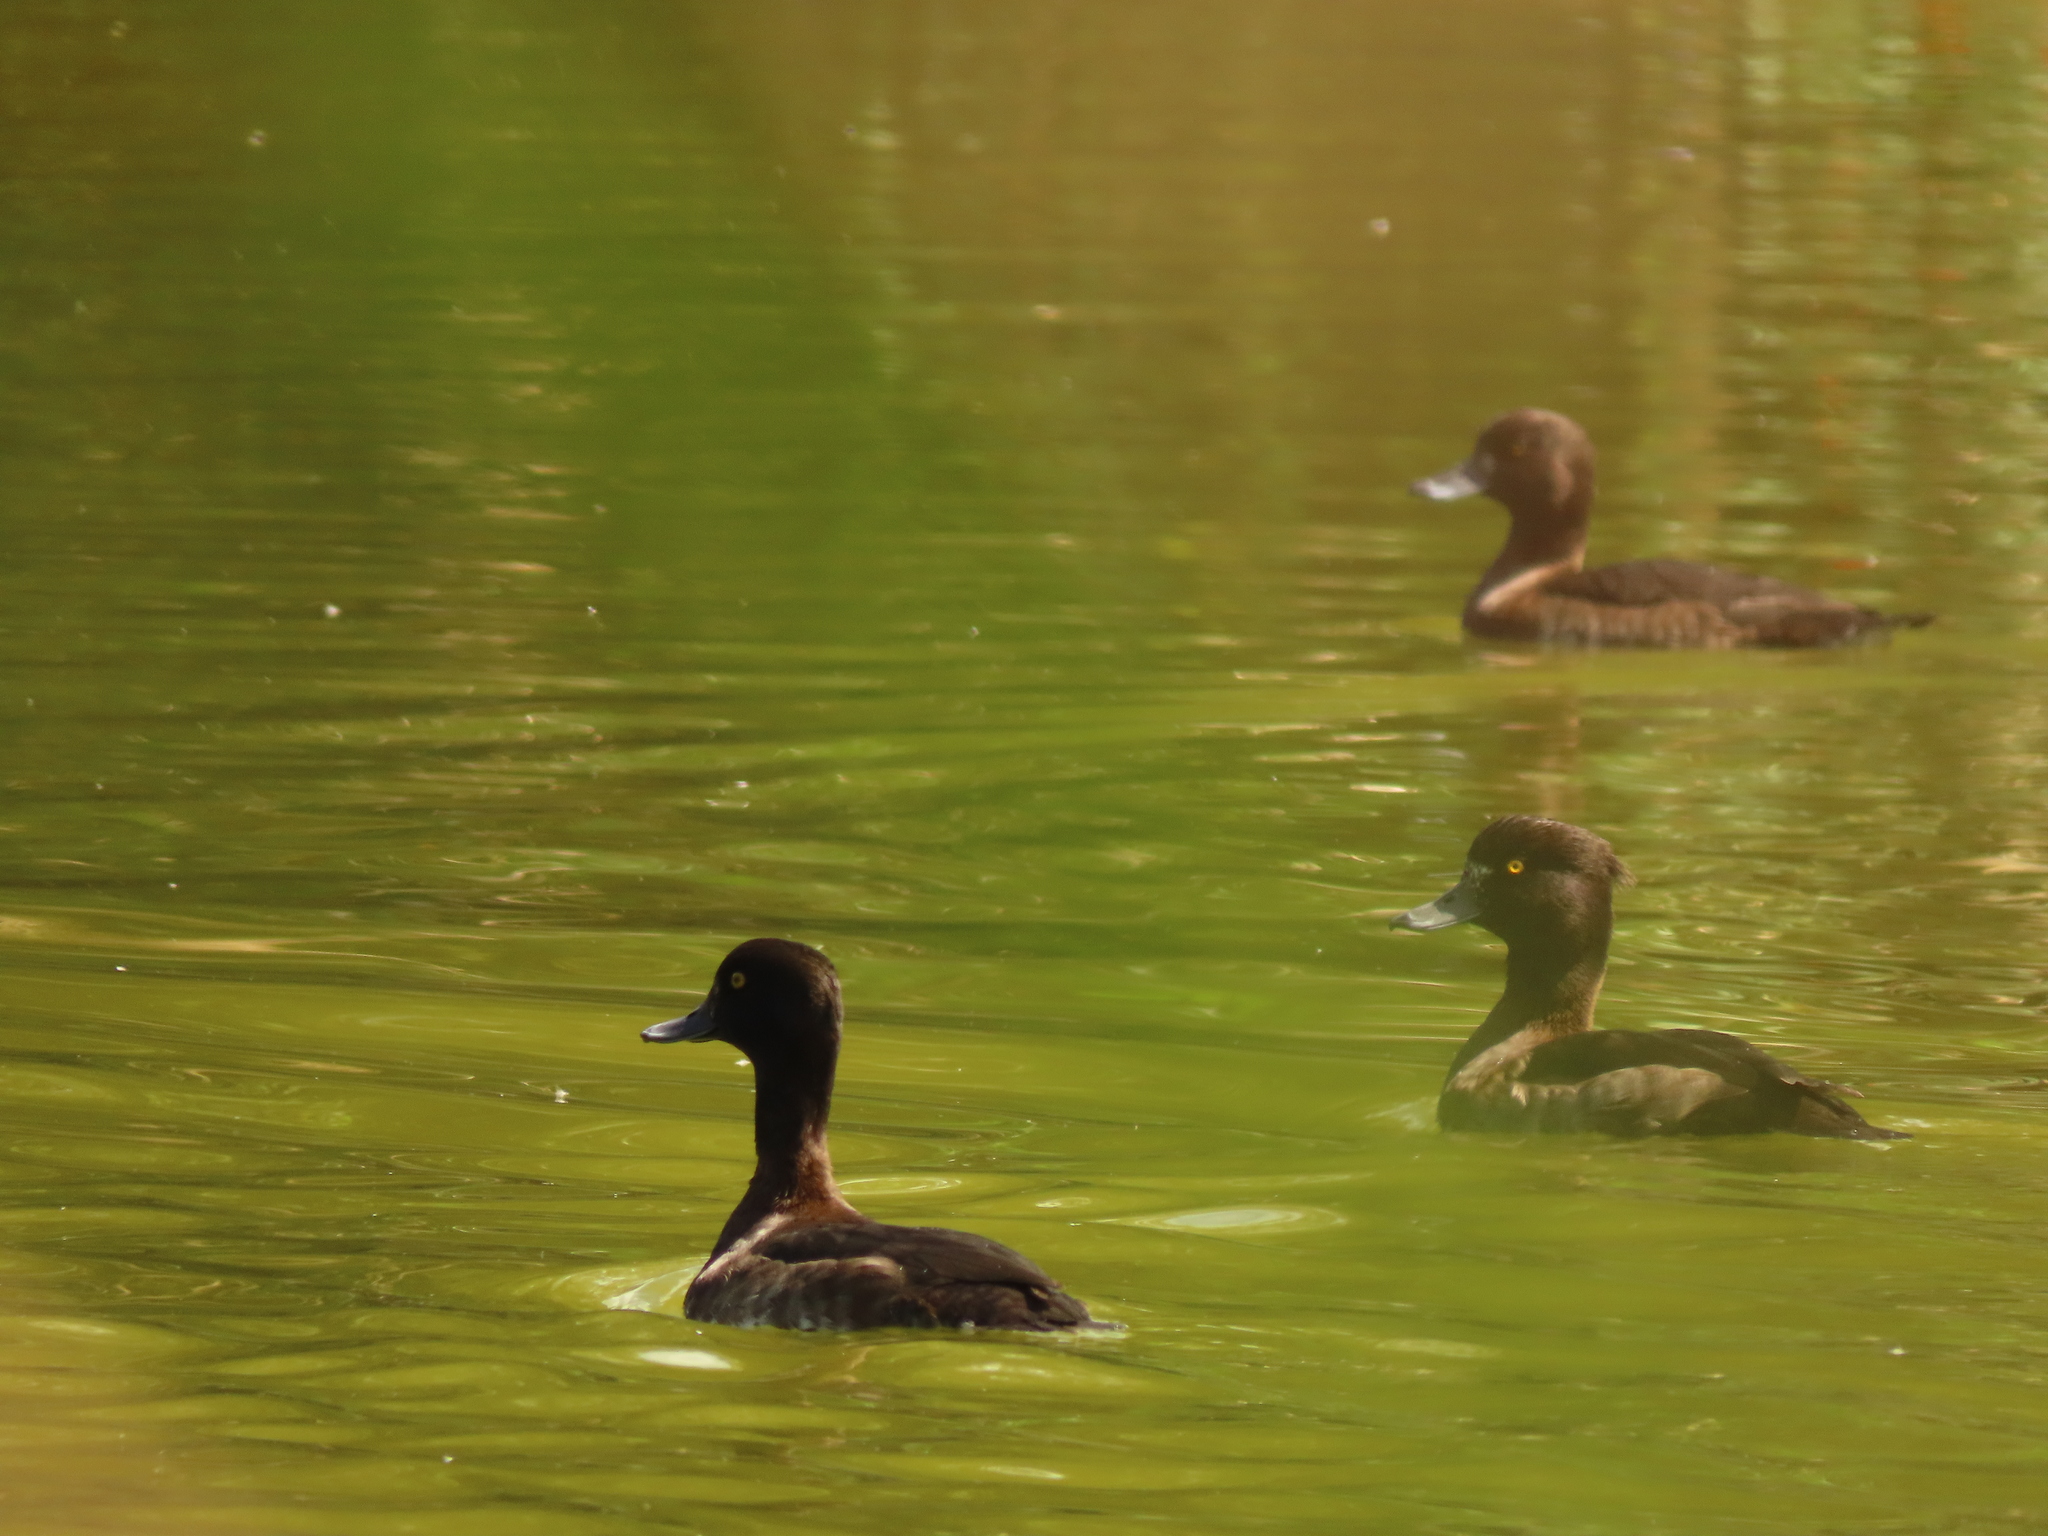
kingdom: Animalia
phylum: Chordata
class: Aves
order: Anseriformes
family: Anatidae
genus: Aythya
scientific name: Aythya fuligula
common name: Tufted duck
